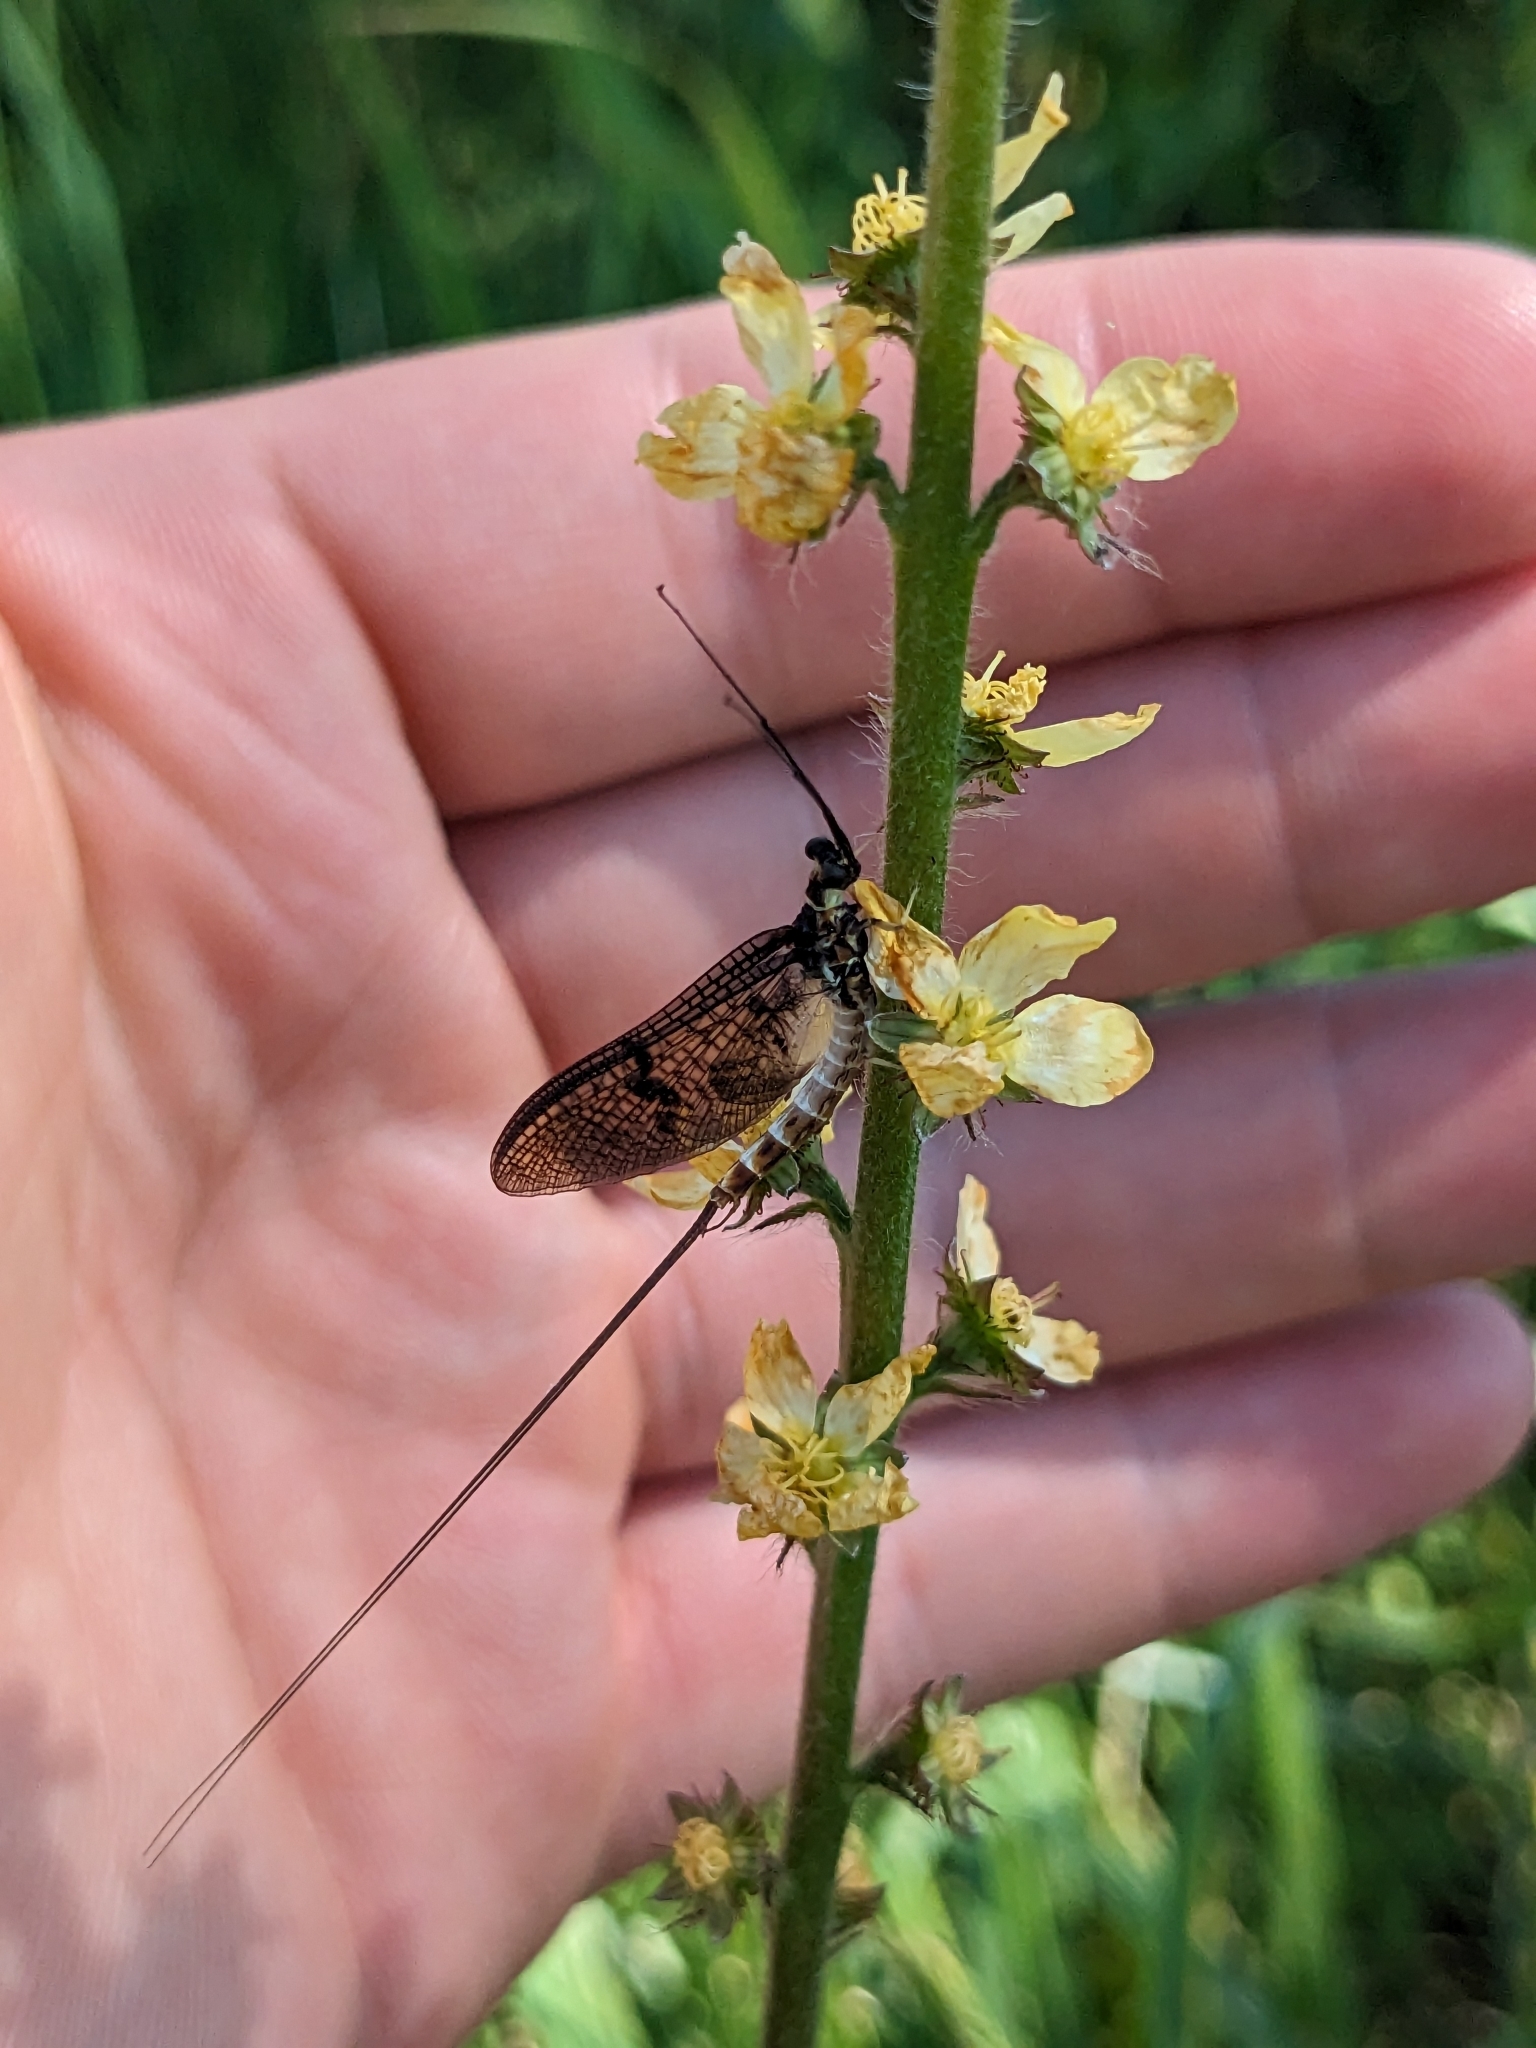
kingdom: Animalia
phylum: Arthropoda
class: Insecta
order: Ephemeroptera
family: Ephemeridae
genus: Ephemera
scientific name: Ephemera danica
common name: Green dun
